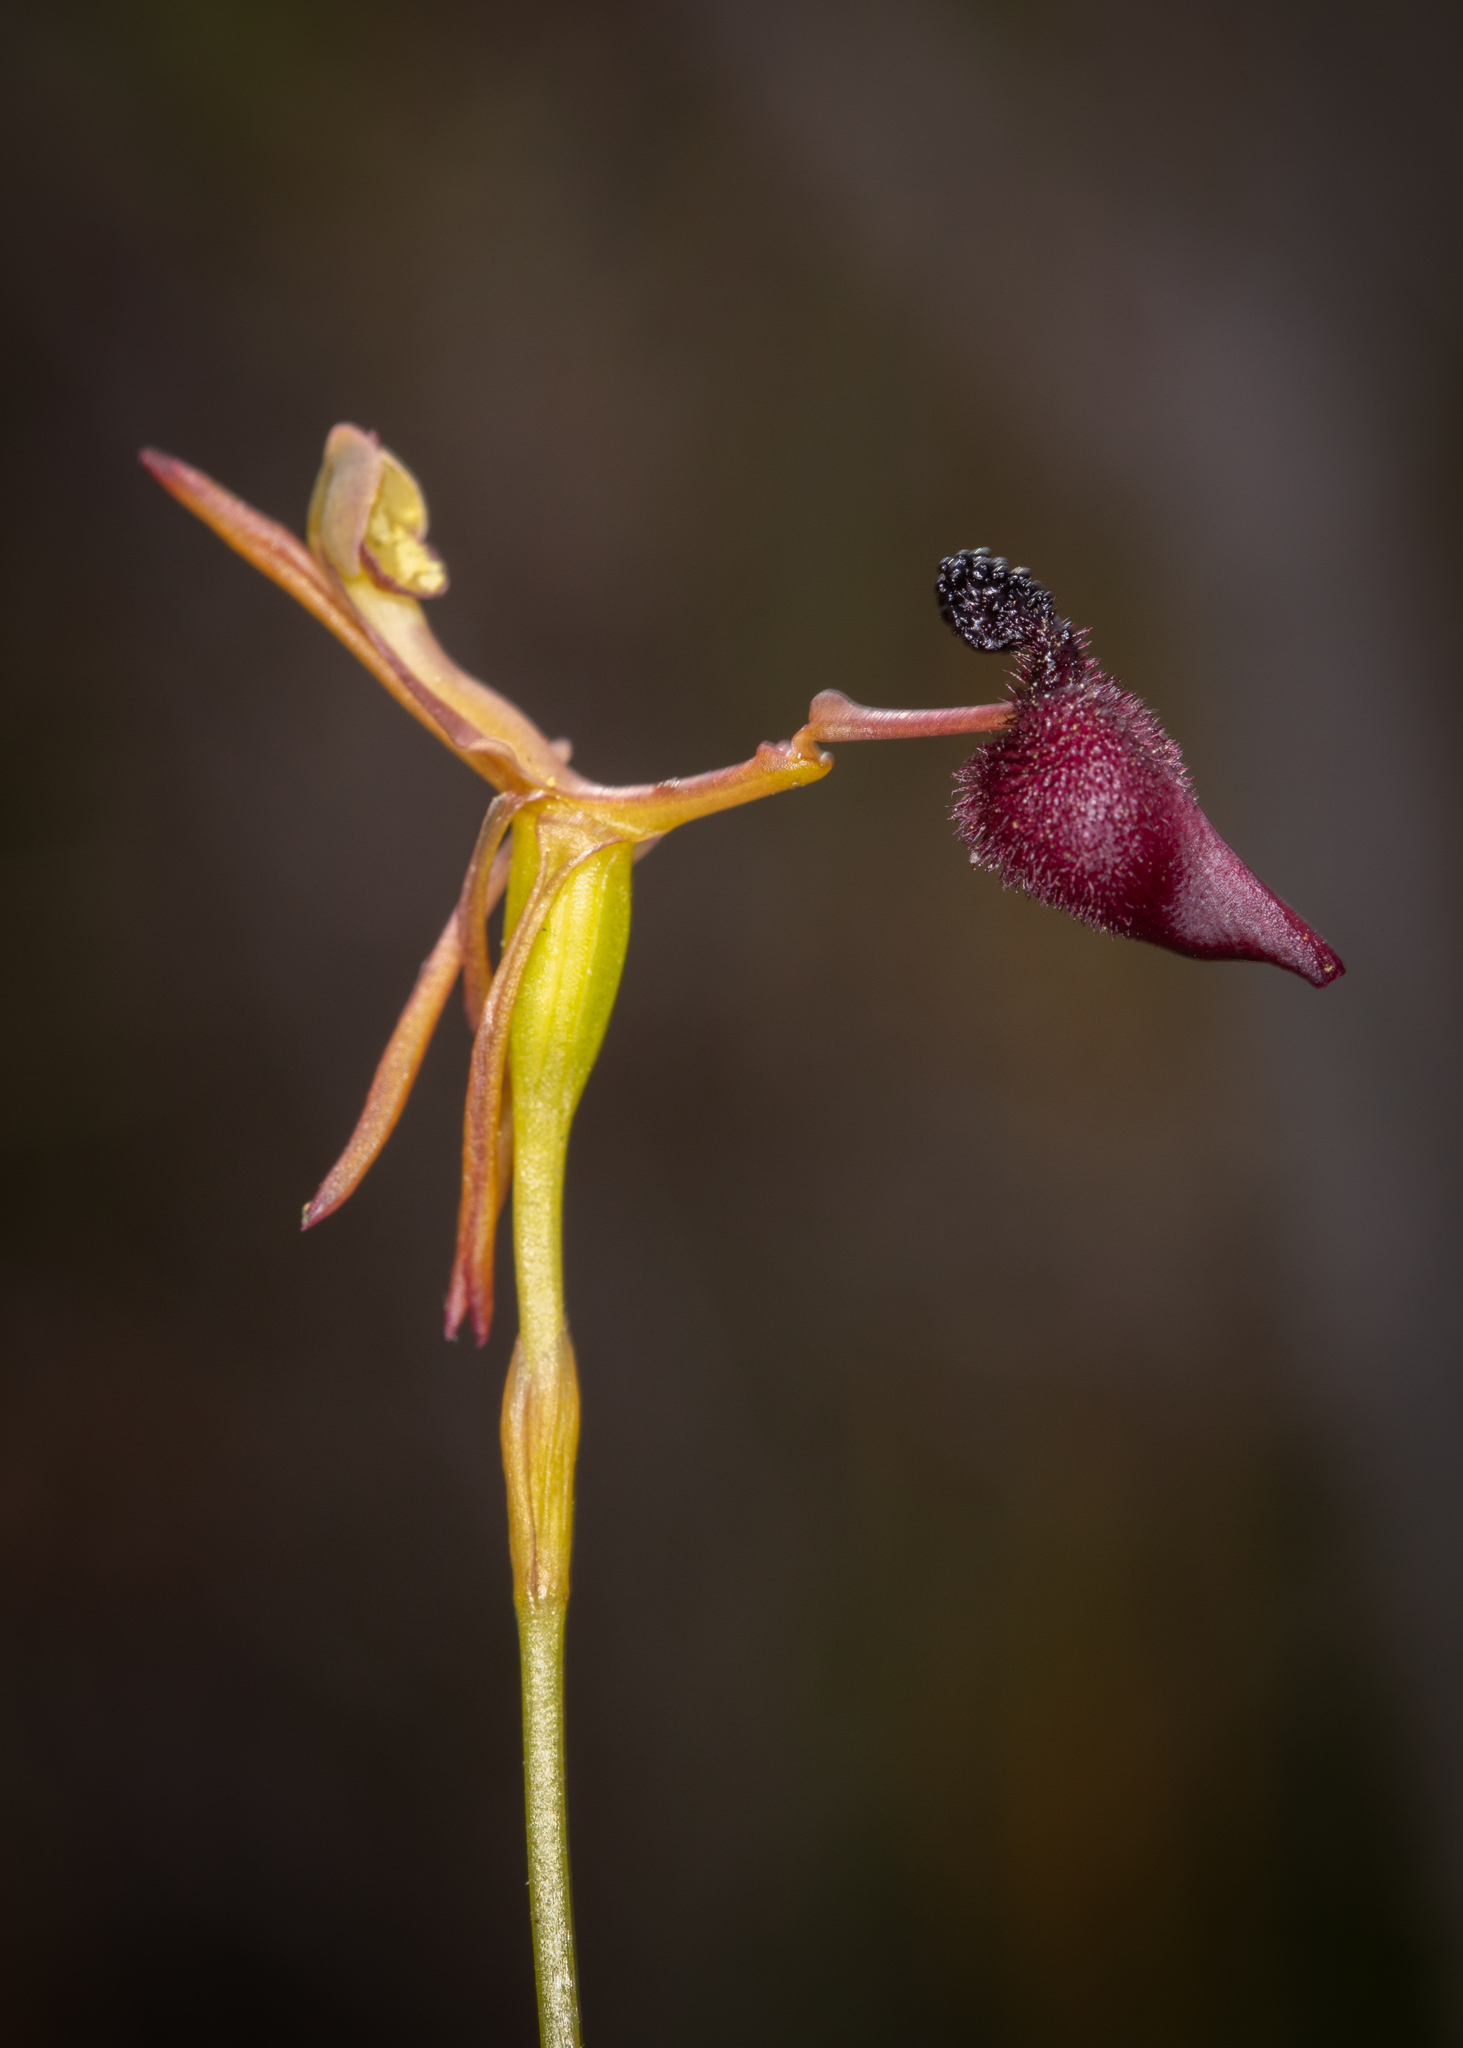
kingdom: Plantae
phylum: Tracheophyta
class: Liliopsida
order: Asparagales
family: Orchidaceae
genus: Drakaea
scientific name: Drakaea glyptodon
